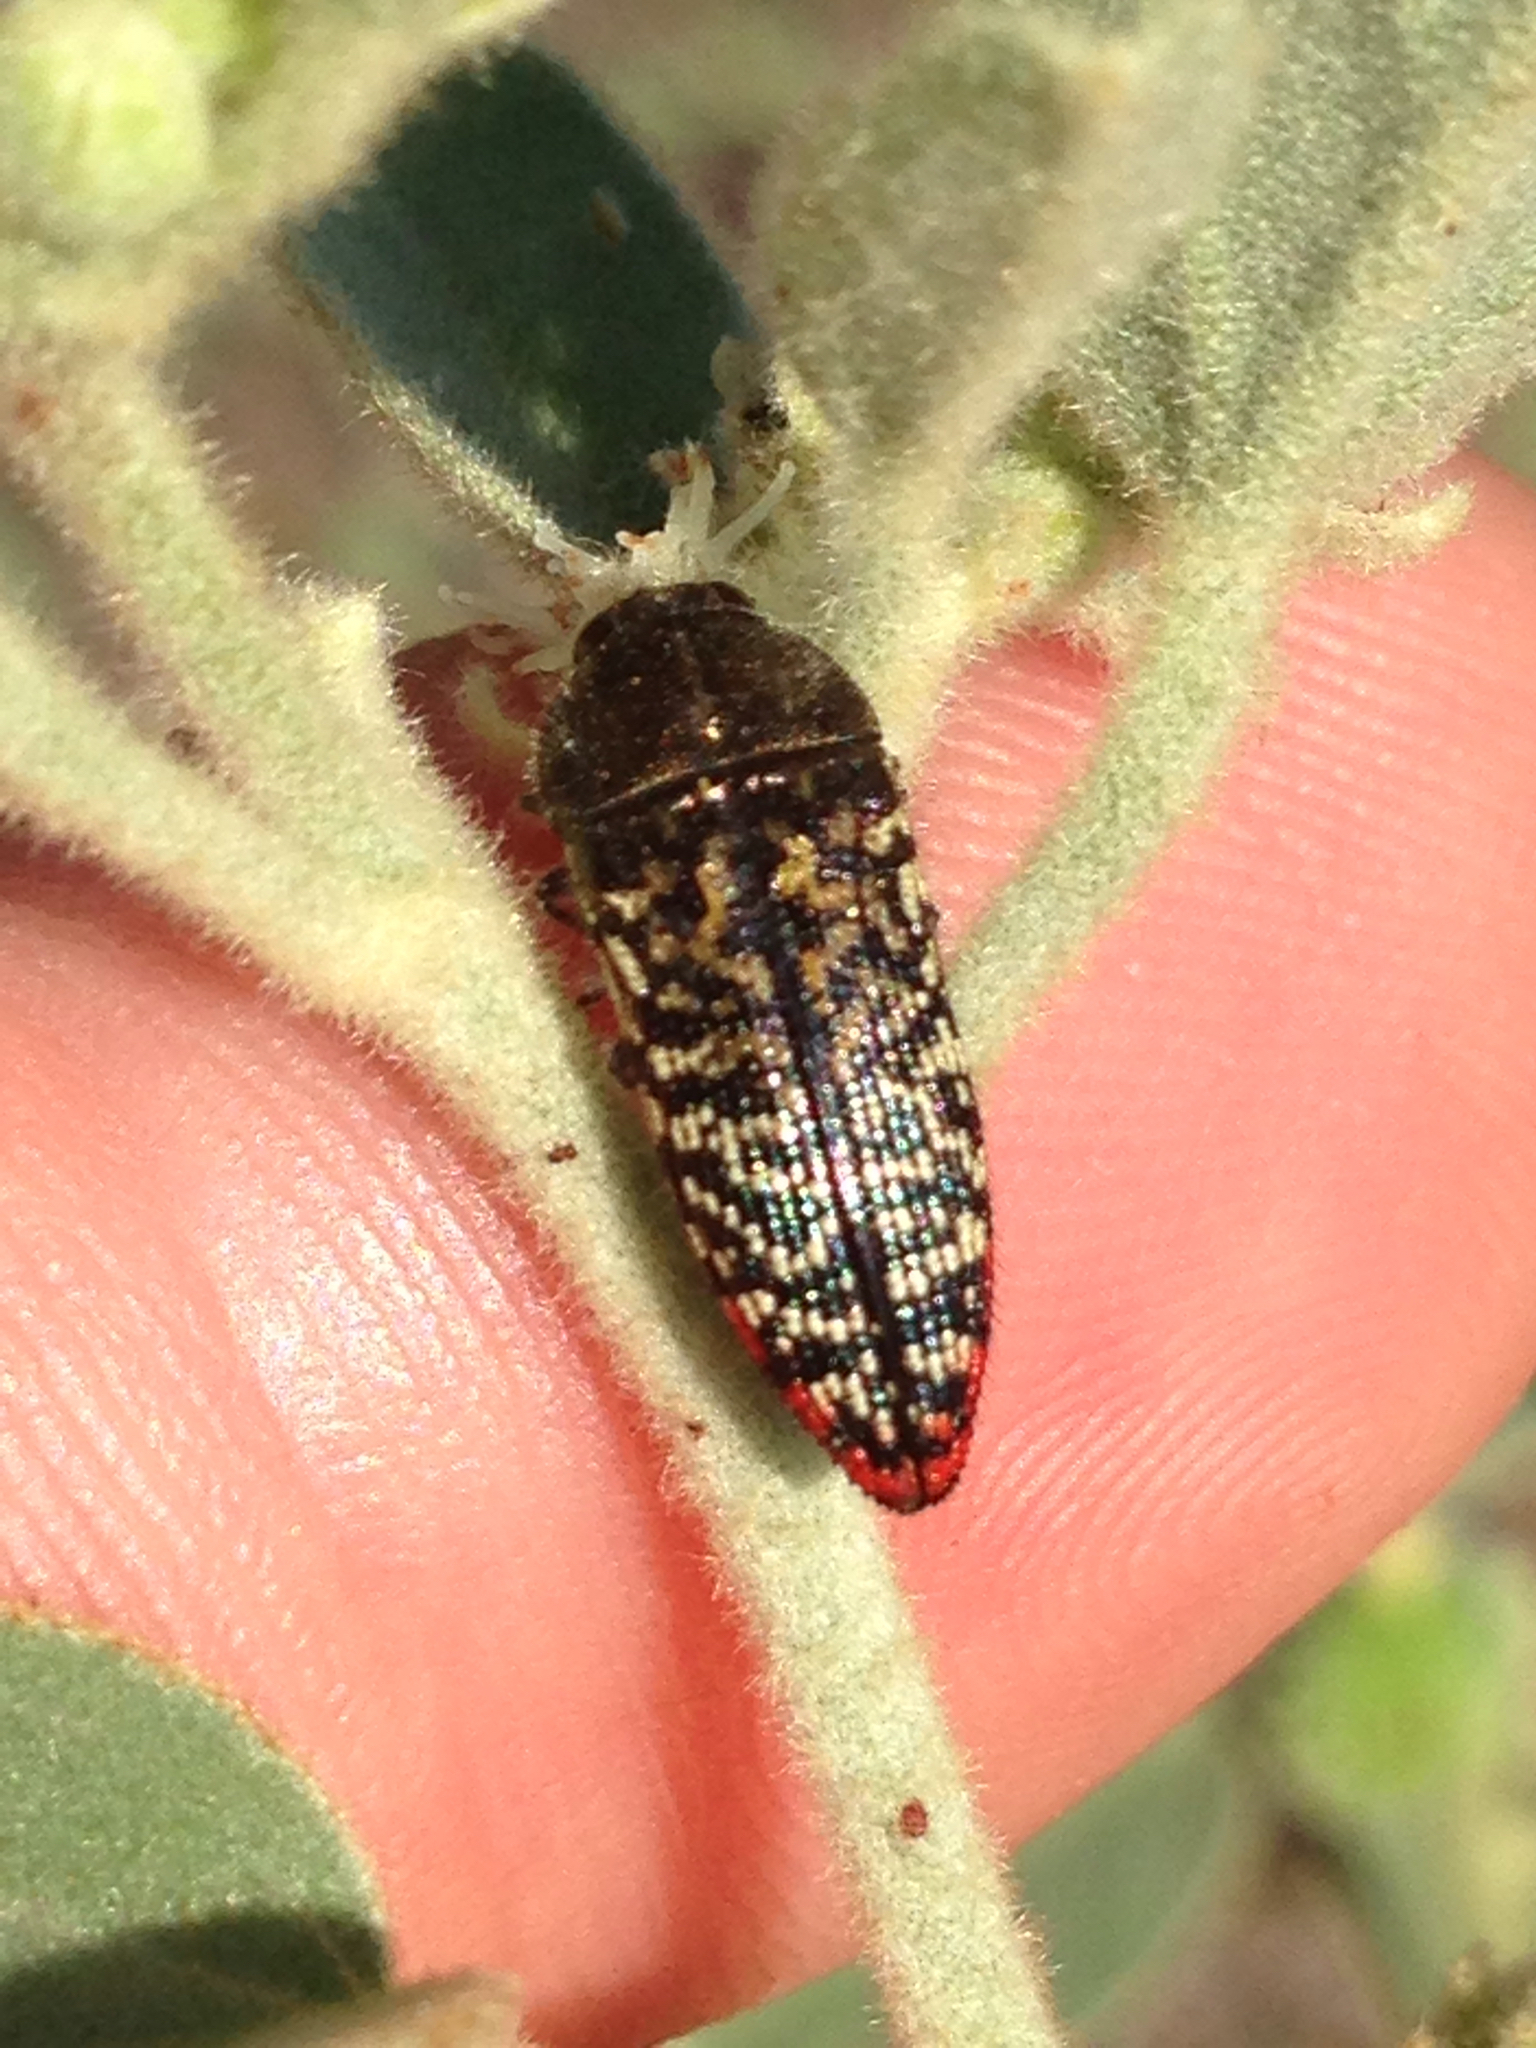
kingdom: Animalia
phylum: Arthropoda
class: Insecta
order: Coleoptera
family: Buprestidae
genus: Acmaeodera
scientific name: Acmaeodera haemorrhoa
